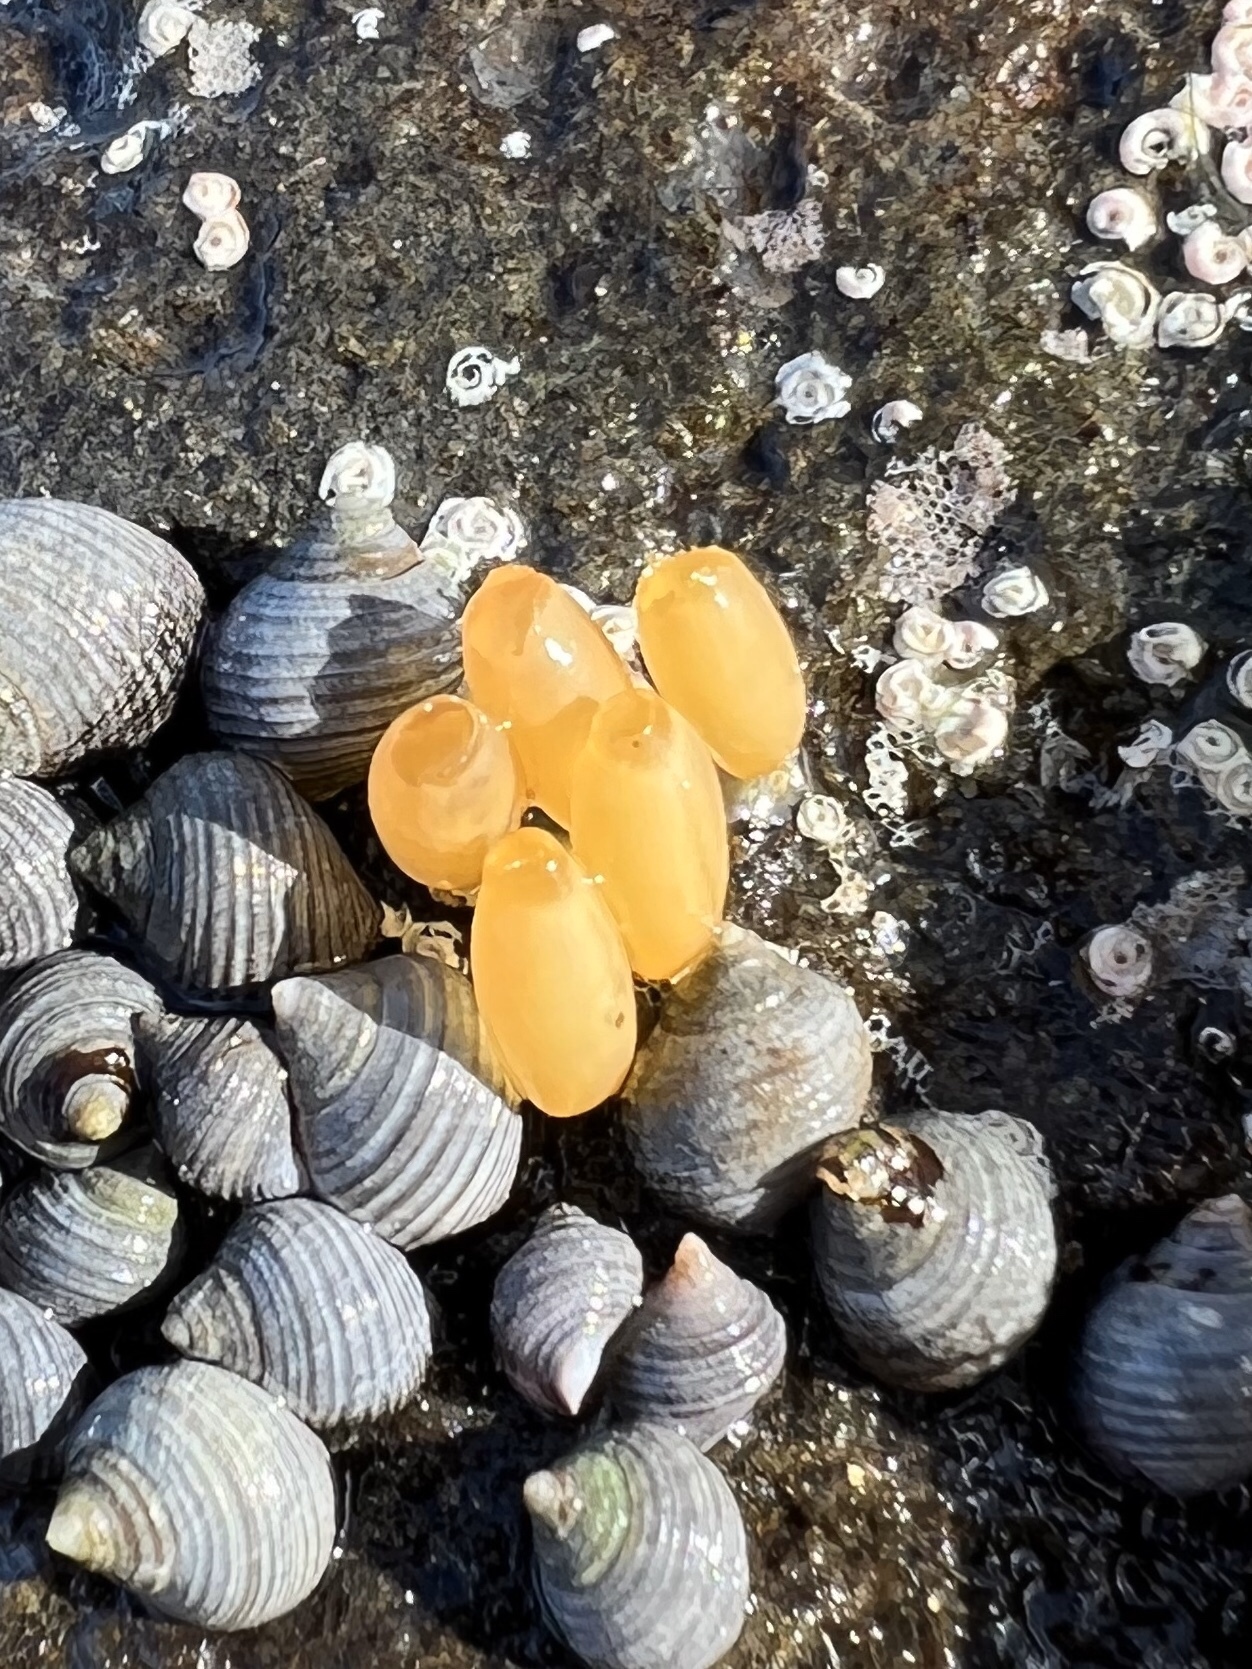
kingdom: Animalia
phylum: Mollusca
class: Gastropoda
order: Neogastropoda
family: Muricidae
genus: Nucella
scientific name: Nucella lapillus
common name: Dog whelk
